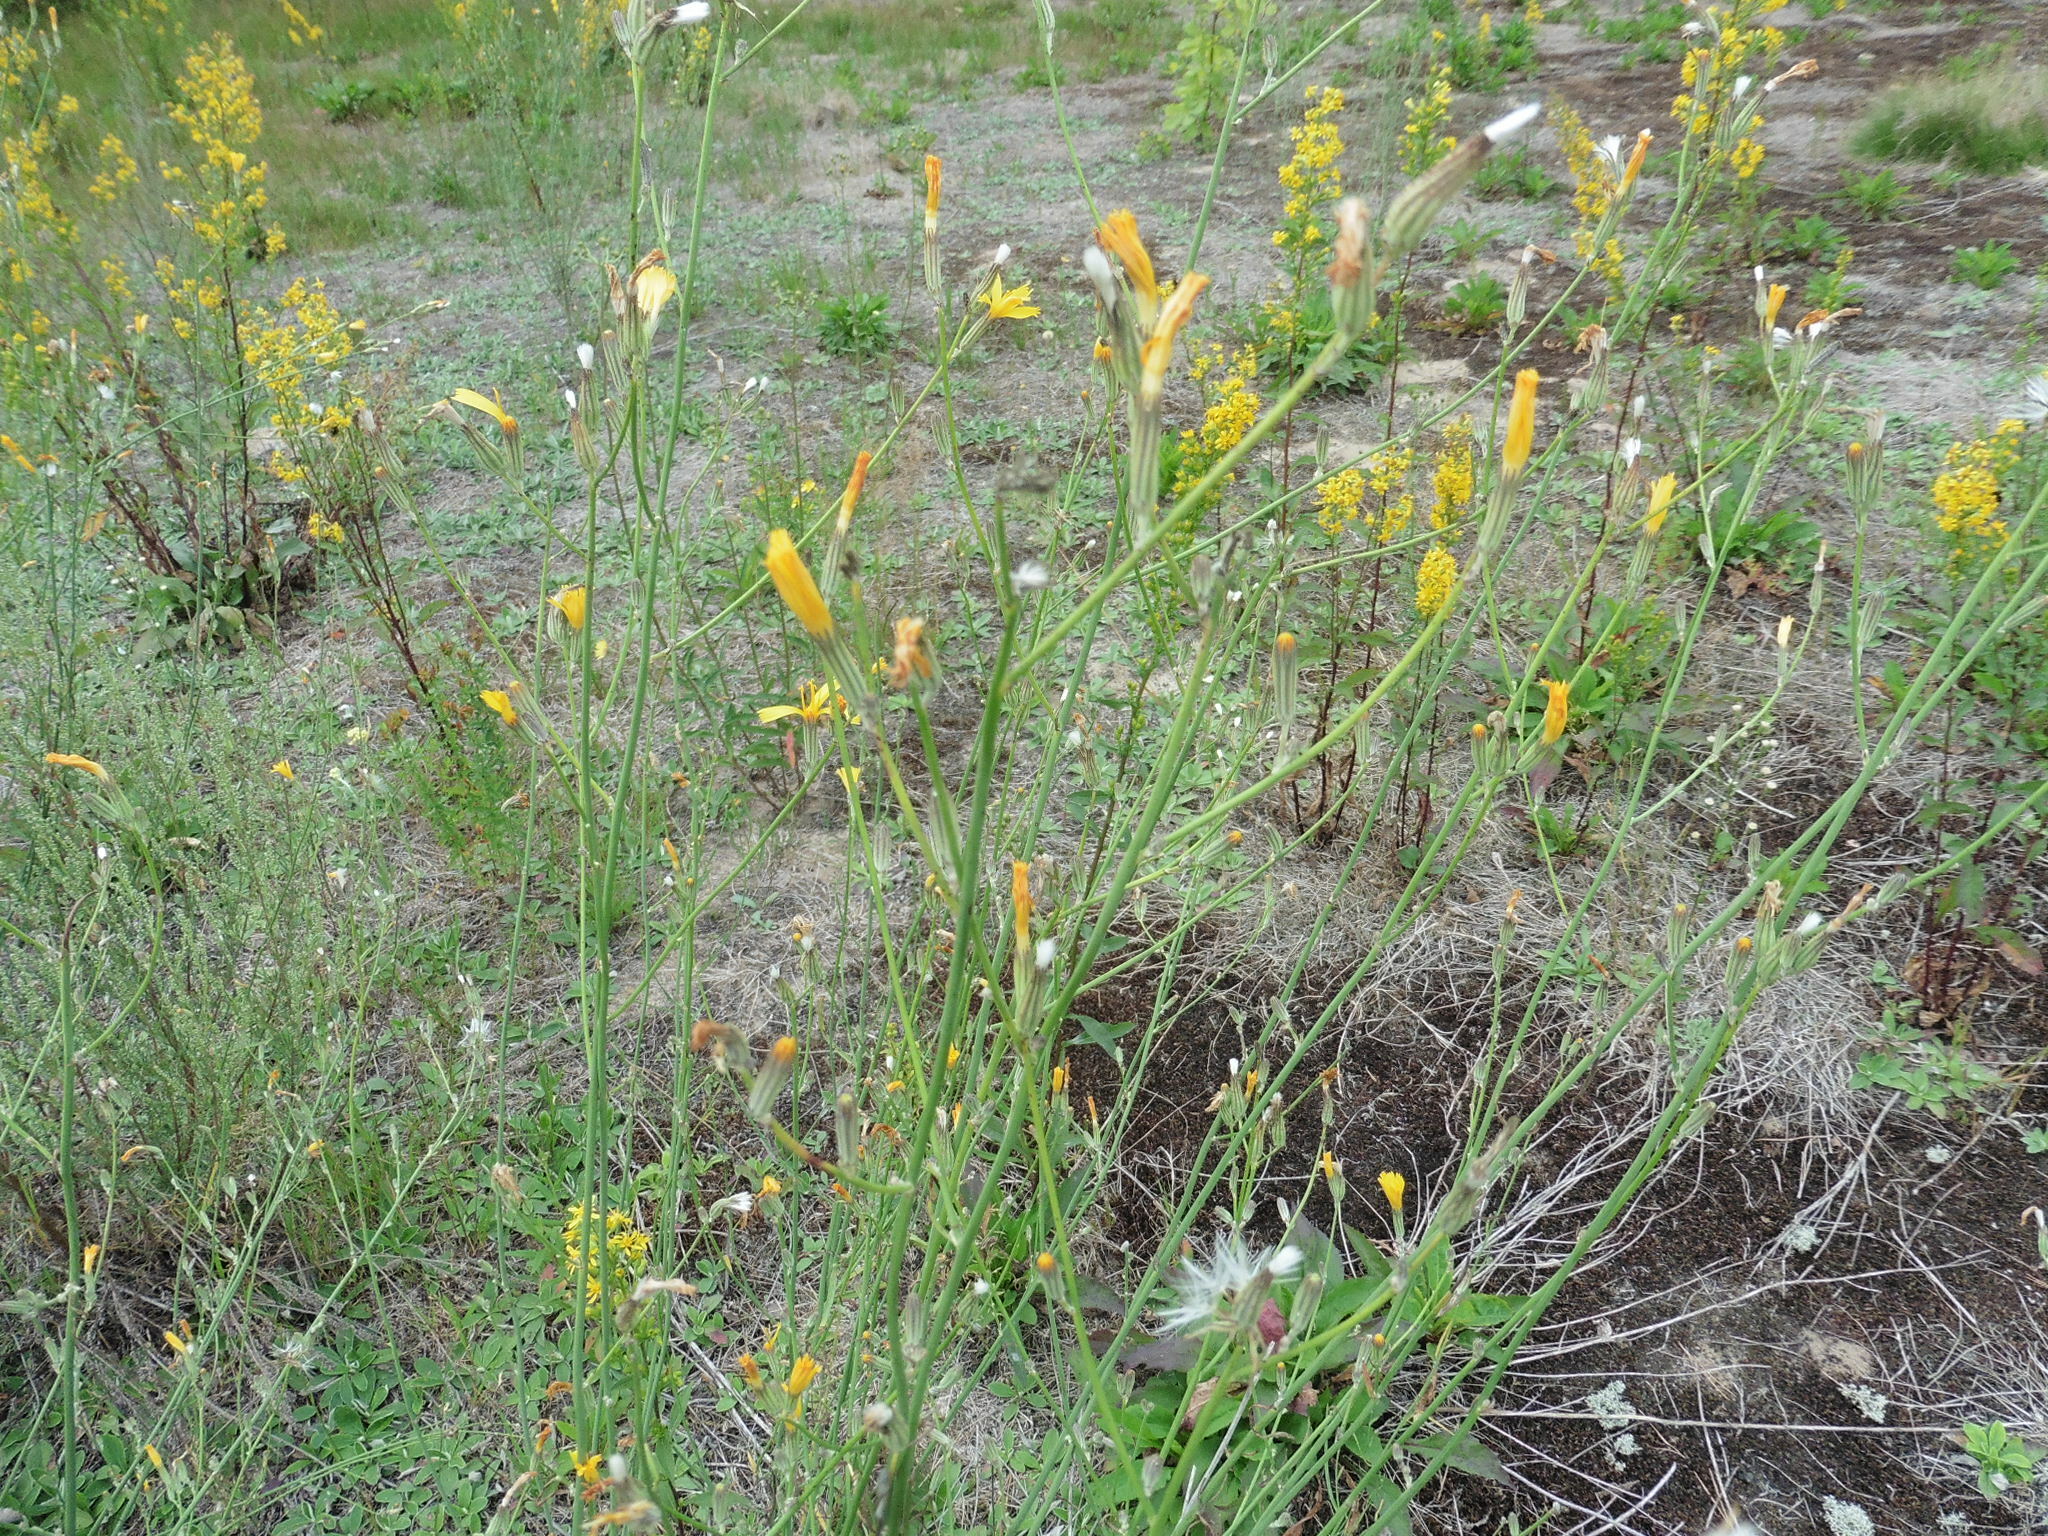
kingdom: Plantae
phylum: Tracheophyta
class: Magnoliopsida
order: Asterales
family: Asteraceae
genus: Chondrilla
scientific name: Chondrilla juncea
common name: Skeleton weed
